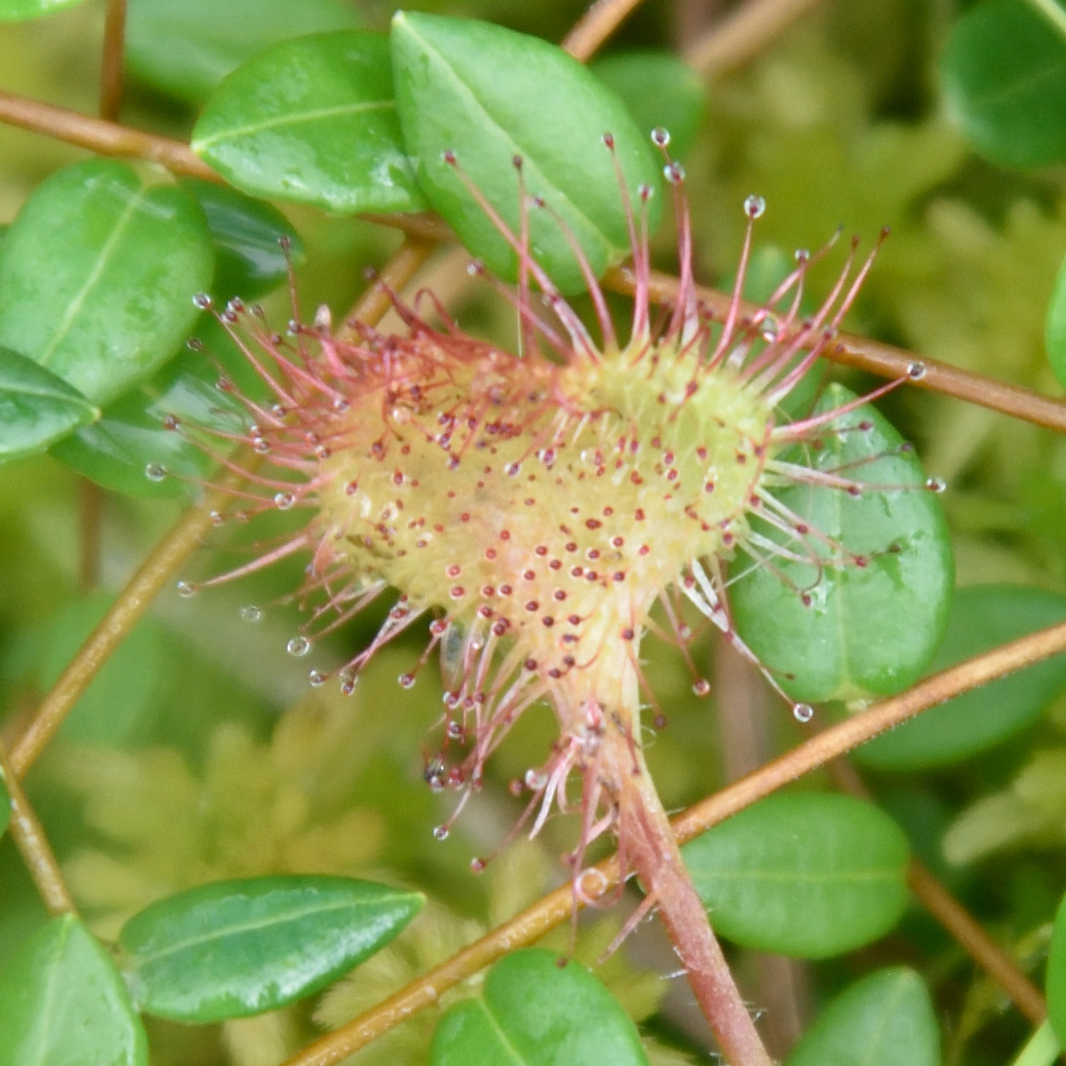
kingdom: Plantae
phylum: Tracheophyta
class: Magnoliopsida
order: Caryophyllales
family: Droseraceae
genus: Drosera
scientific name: Drosera rotundifolia
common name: Round-leaved sundew
